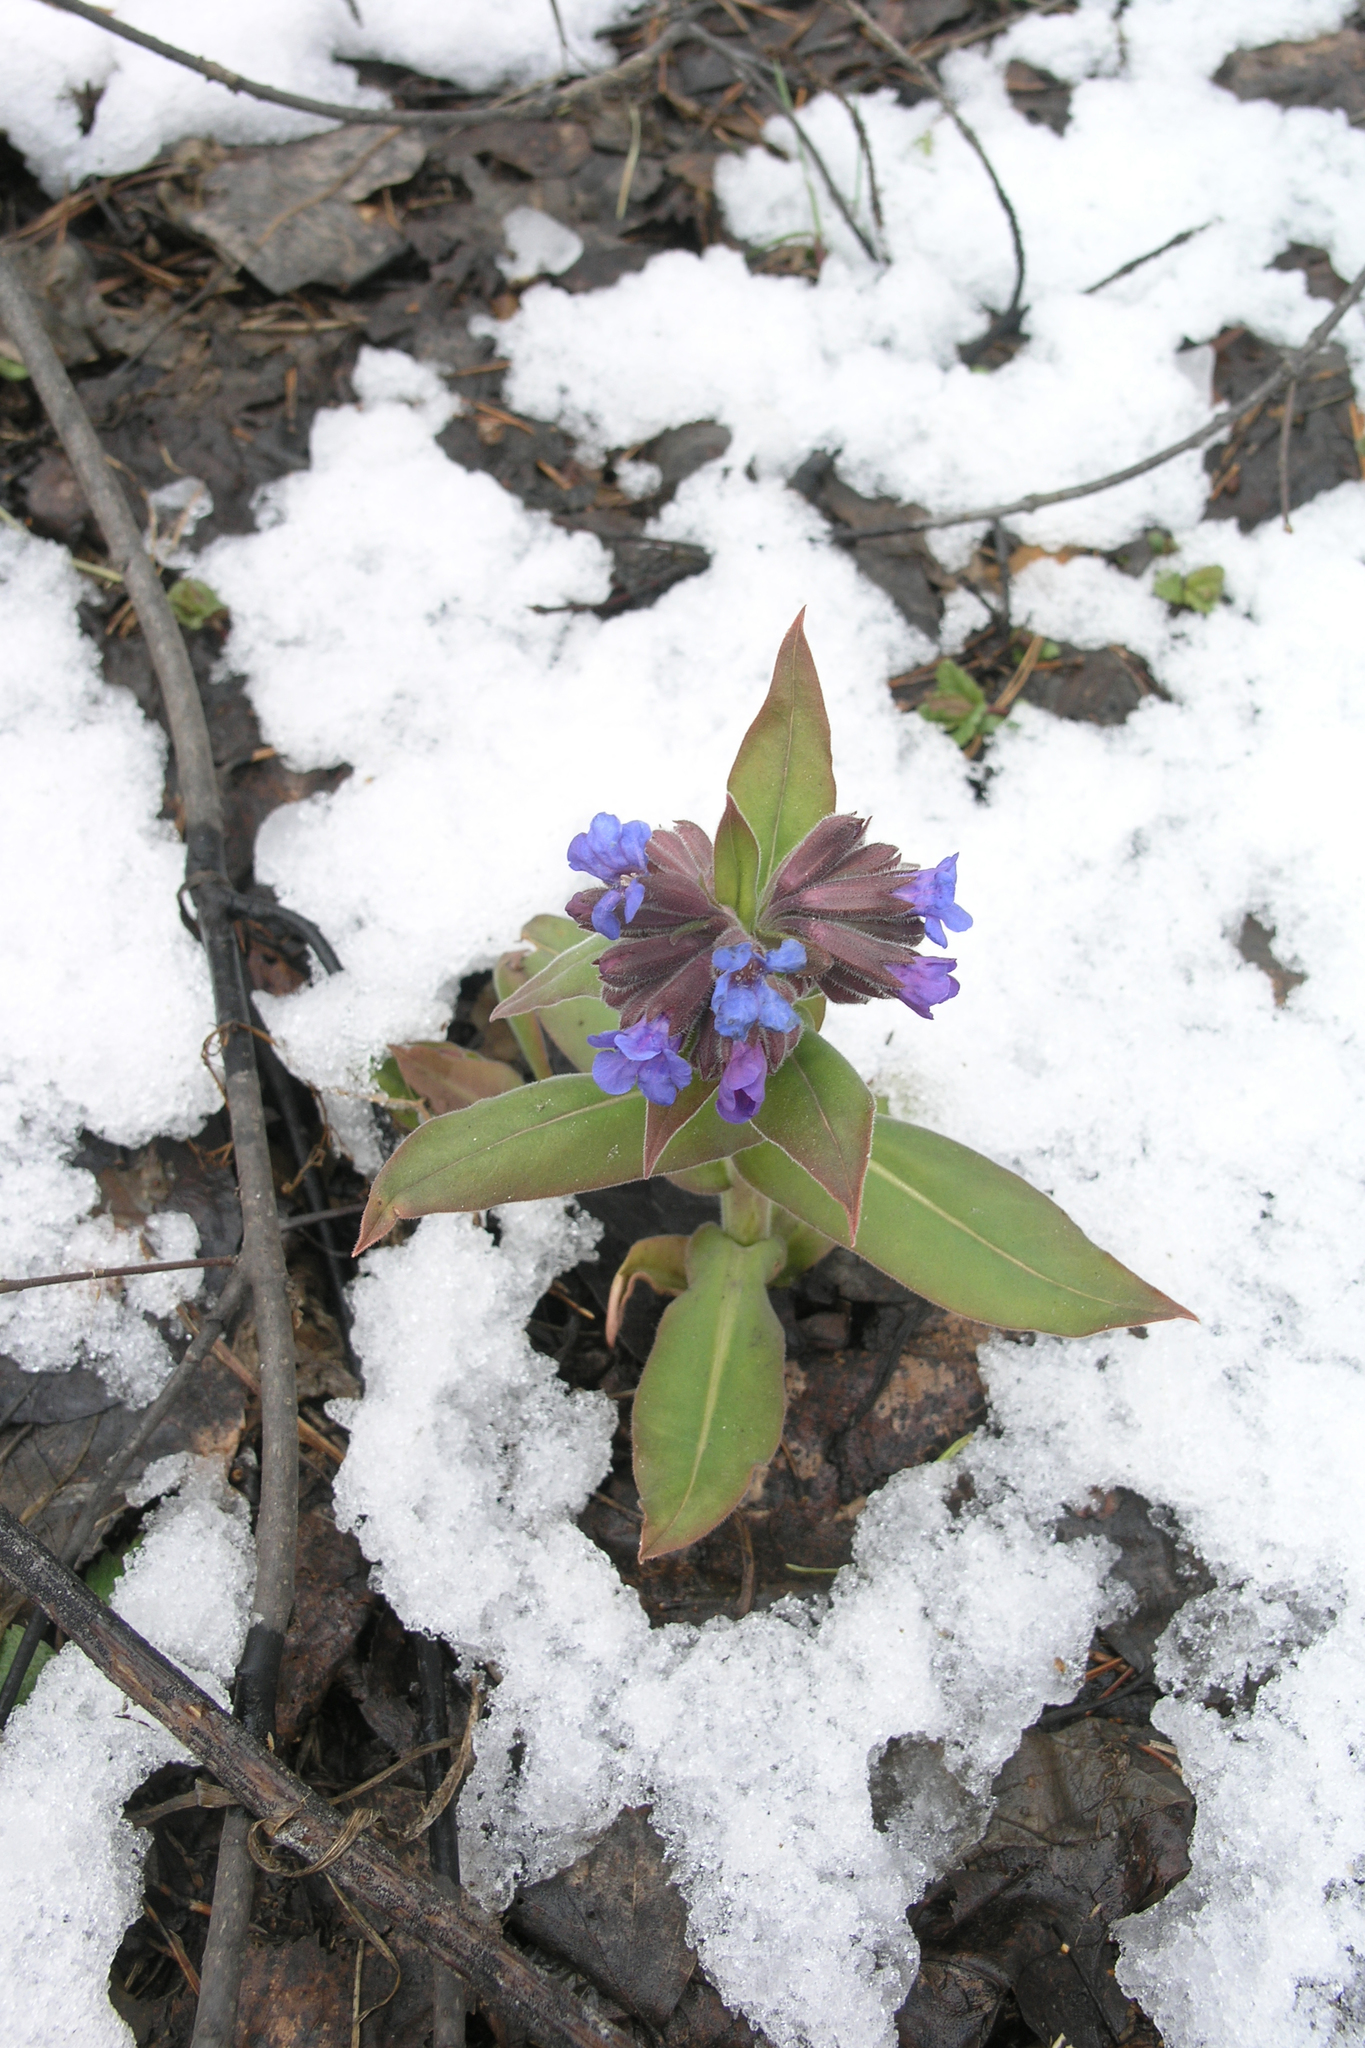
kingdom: Plantae
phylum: Tracheophyta
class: Magnoliopsida
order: Boraginales
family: Boraginaceae
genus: Pulmonaria
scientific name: Pulmonaria mollis
